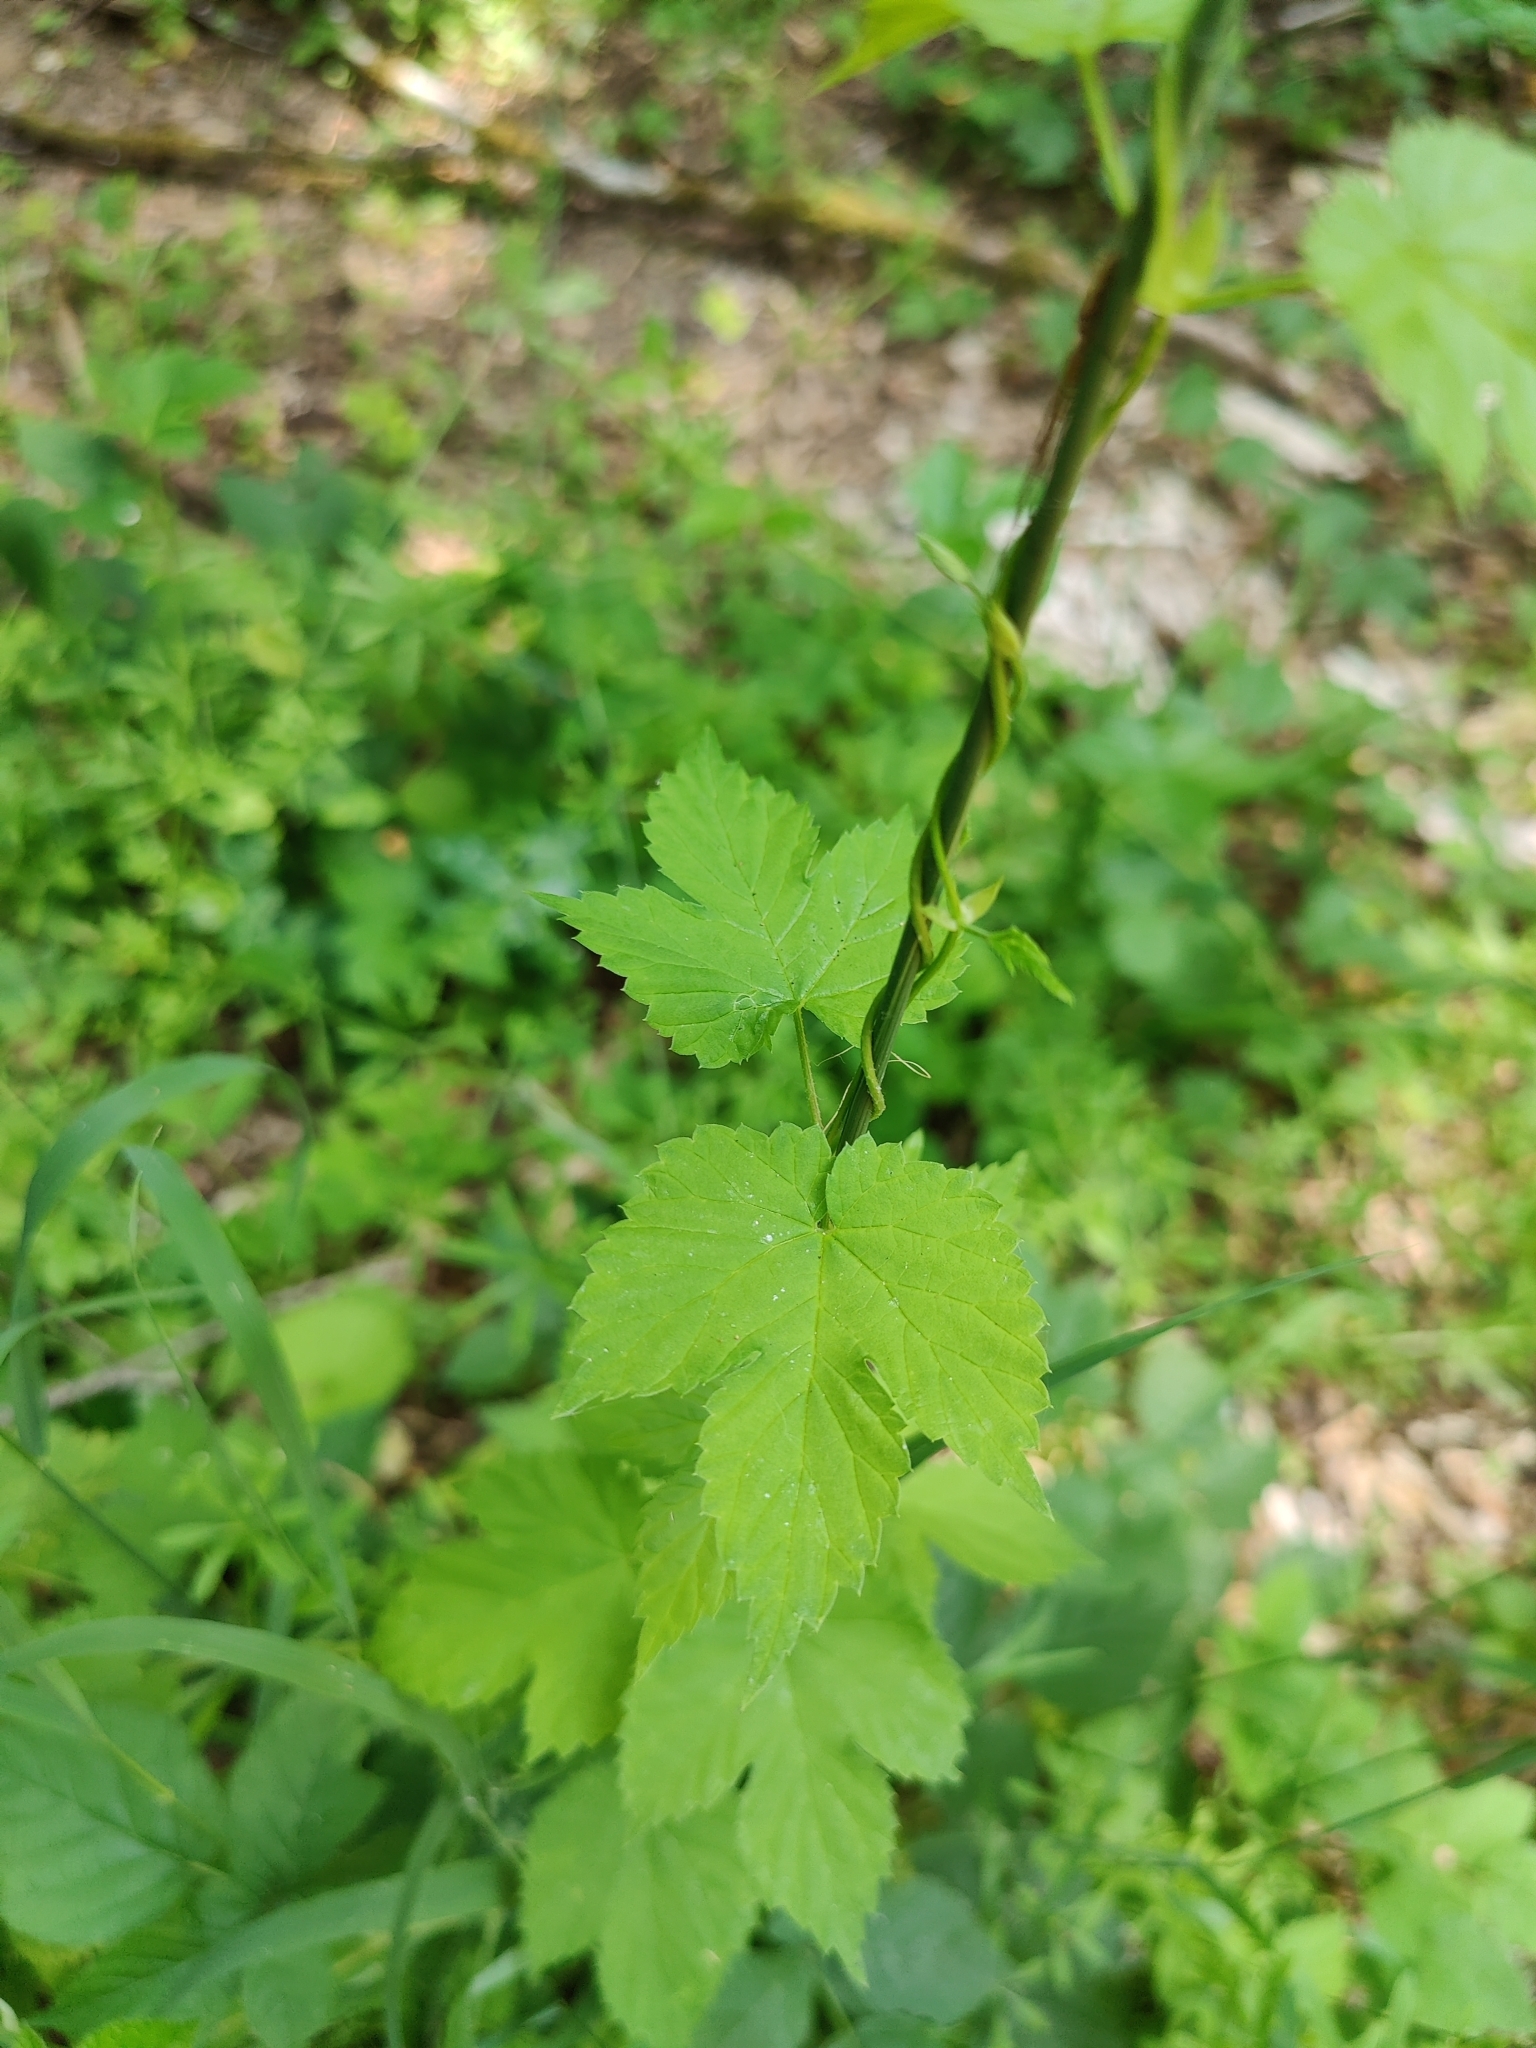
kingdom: Plantae
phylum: Tracheophyta
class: Magnoliopsida
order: Rosales
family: Cannabaceae
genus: Humulus
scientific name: Humulus lupulus
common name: Hop
